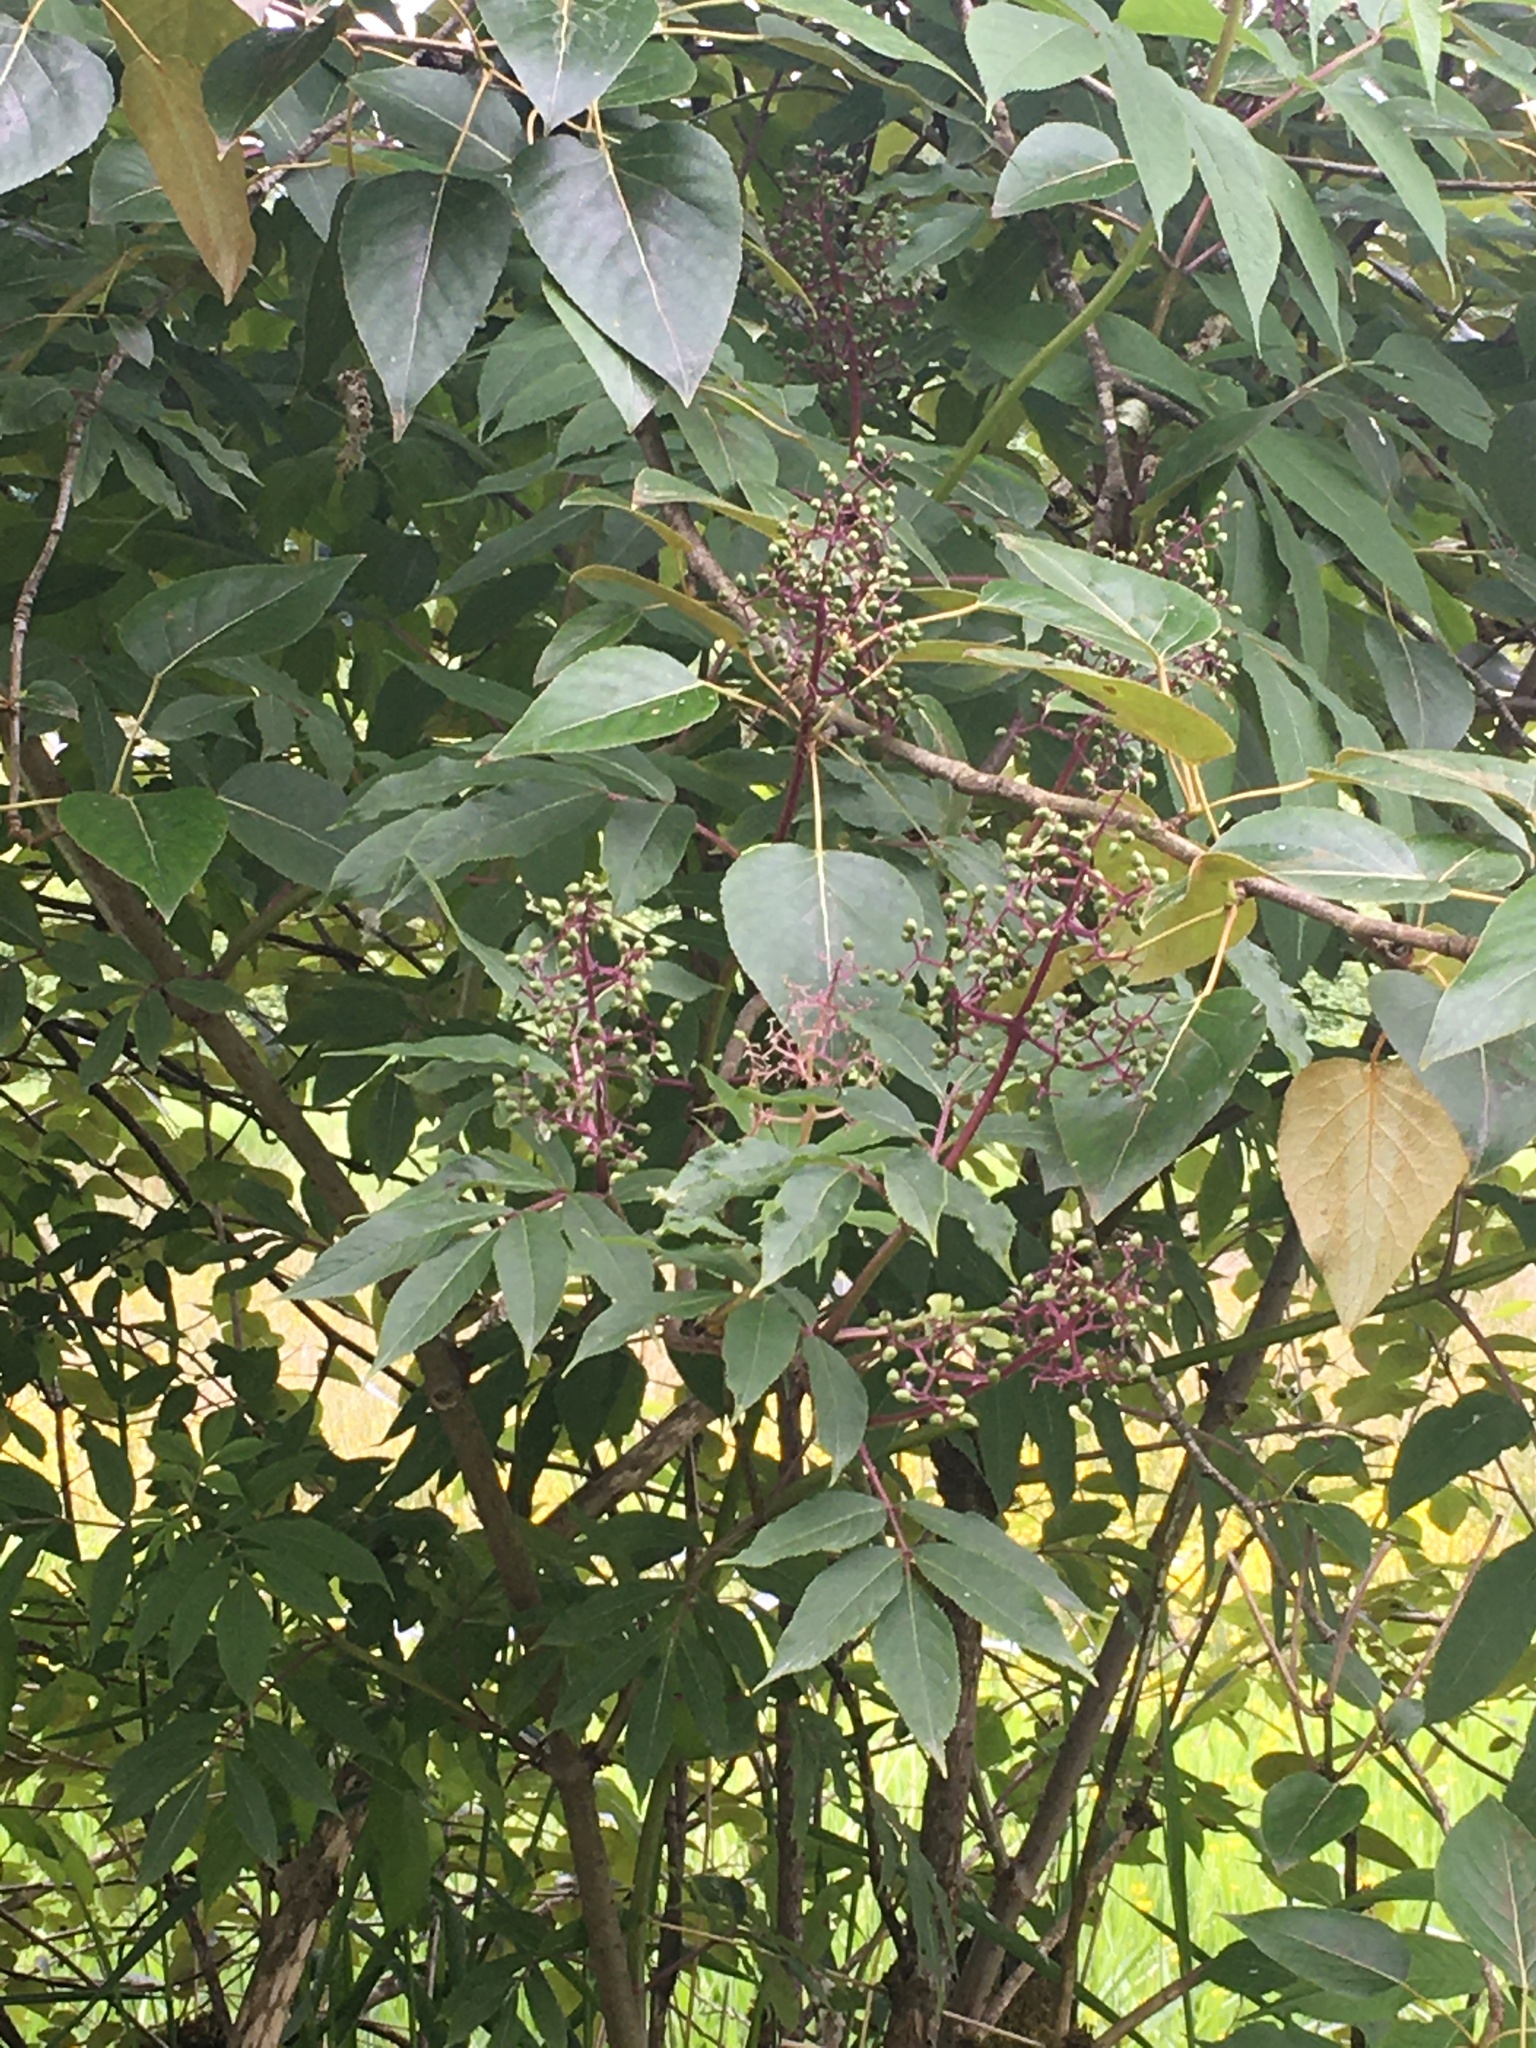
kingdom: Plantae
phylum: Tracheophyta
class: Magnoliopsida
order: Dipsacales
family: Viburnaceae
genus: Sambucus
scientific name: Sambucus racemosa
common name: Red-berried elder
